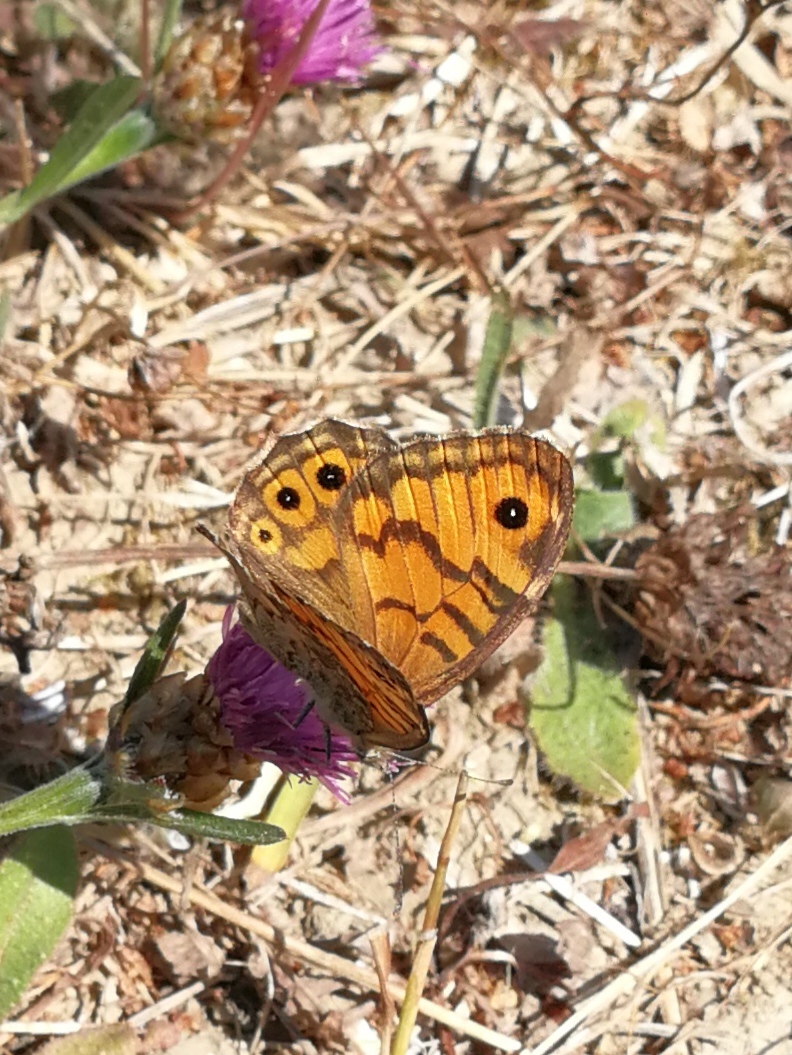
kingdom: Animalia
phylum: Arthropoda
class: Insecta
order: Lepidoptera
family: Nymphalidae
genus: Pararge
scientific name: Pararge Lasiommata megera
